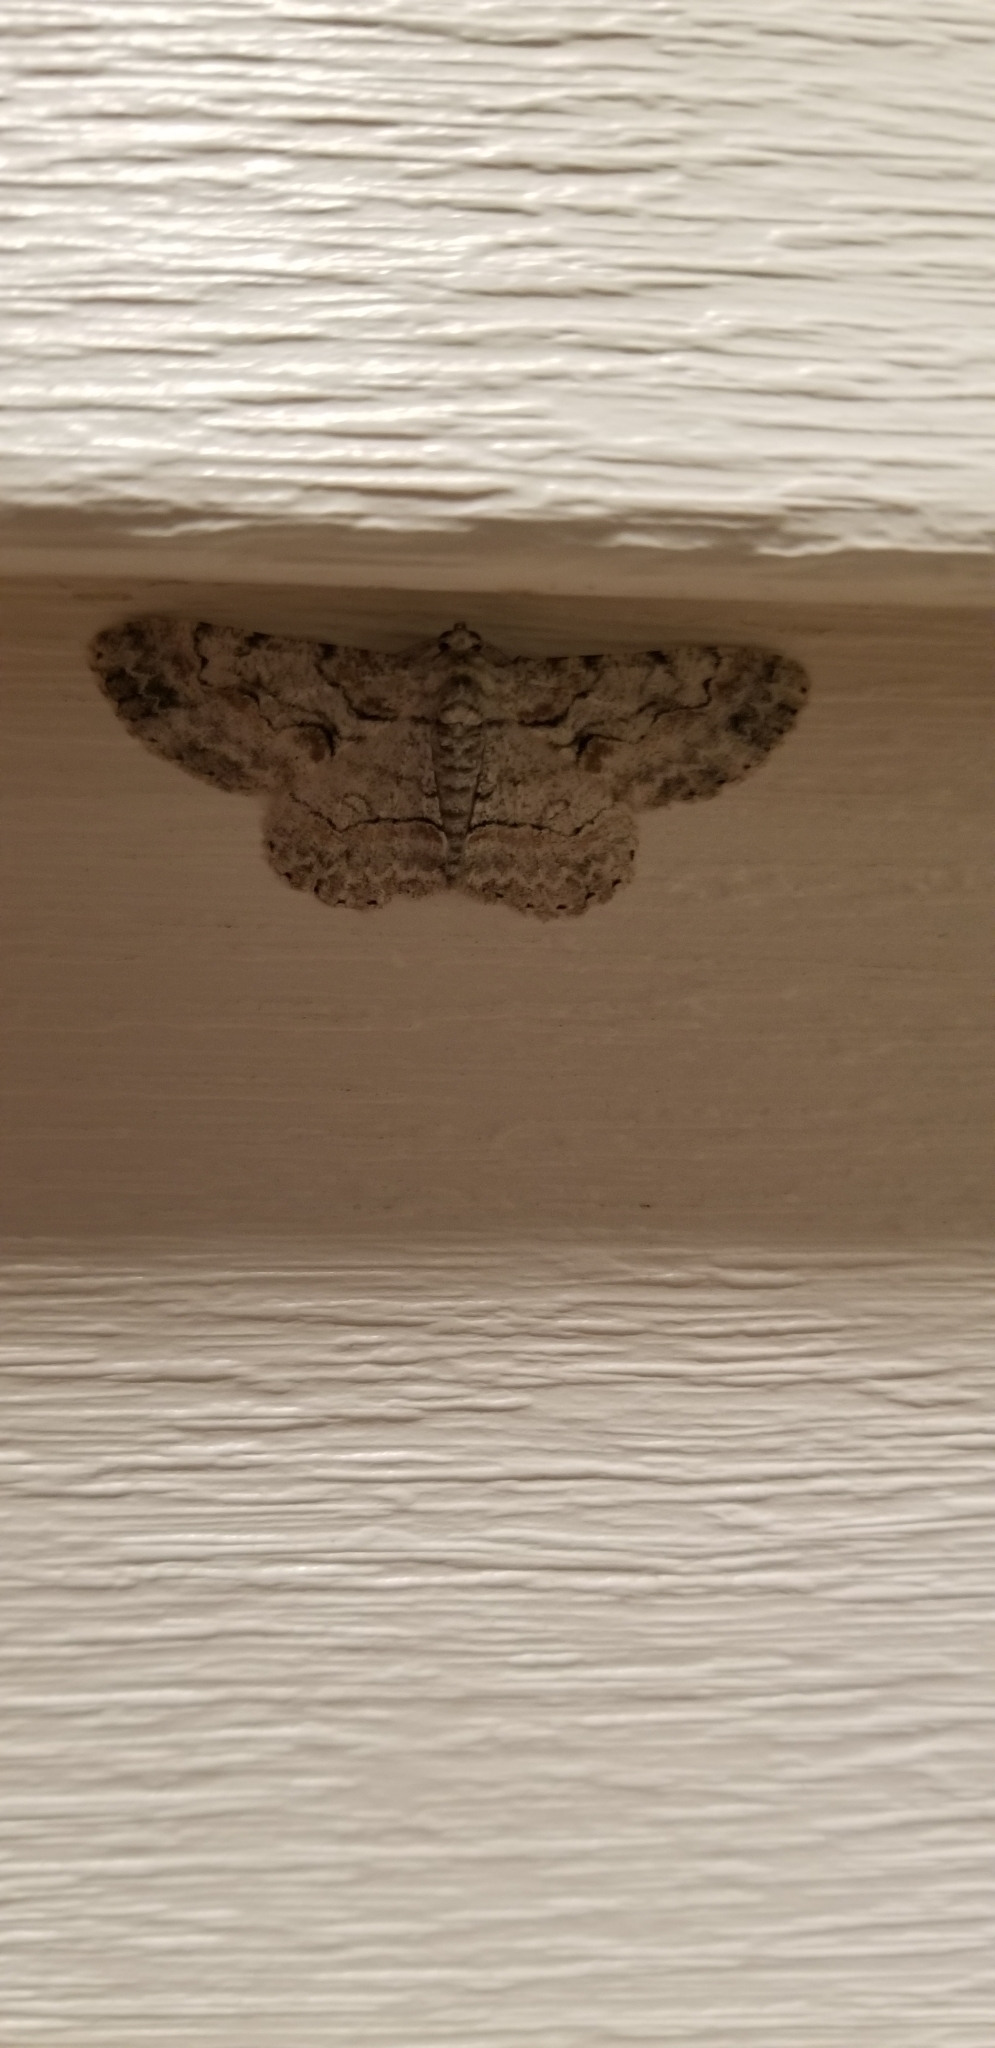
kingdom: Animalia
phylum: Arthropoda
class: Insecta
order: Lepidoptera
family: Geometridae
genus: Iridopsis
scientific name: Iridopsis defectaria
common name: Brown-shaded gray
